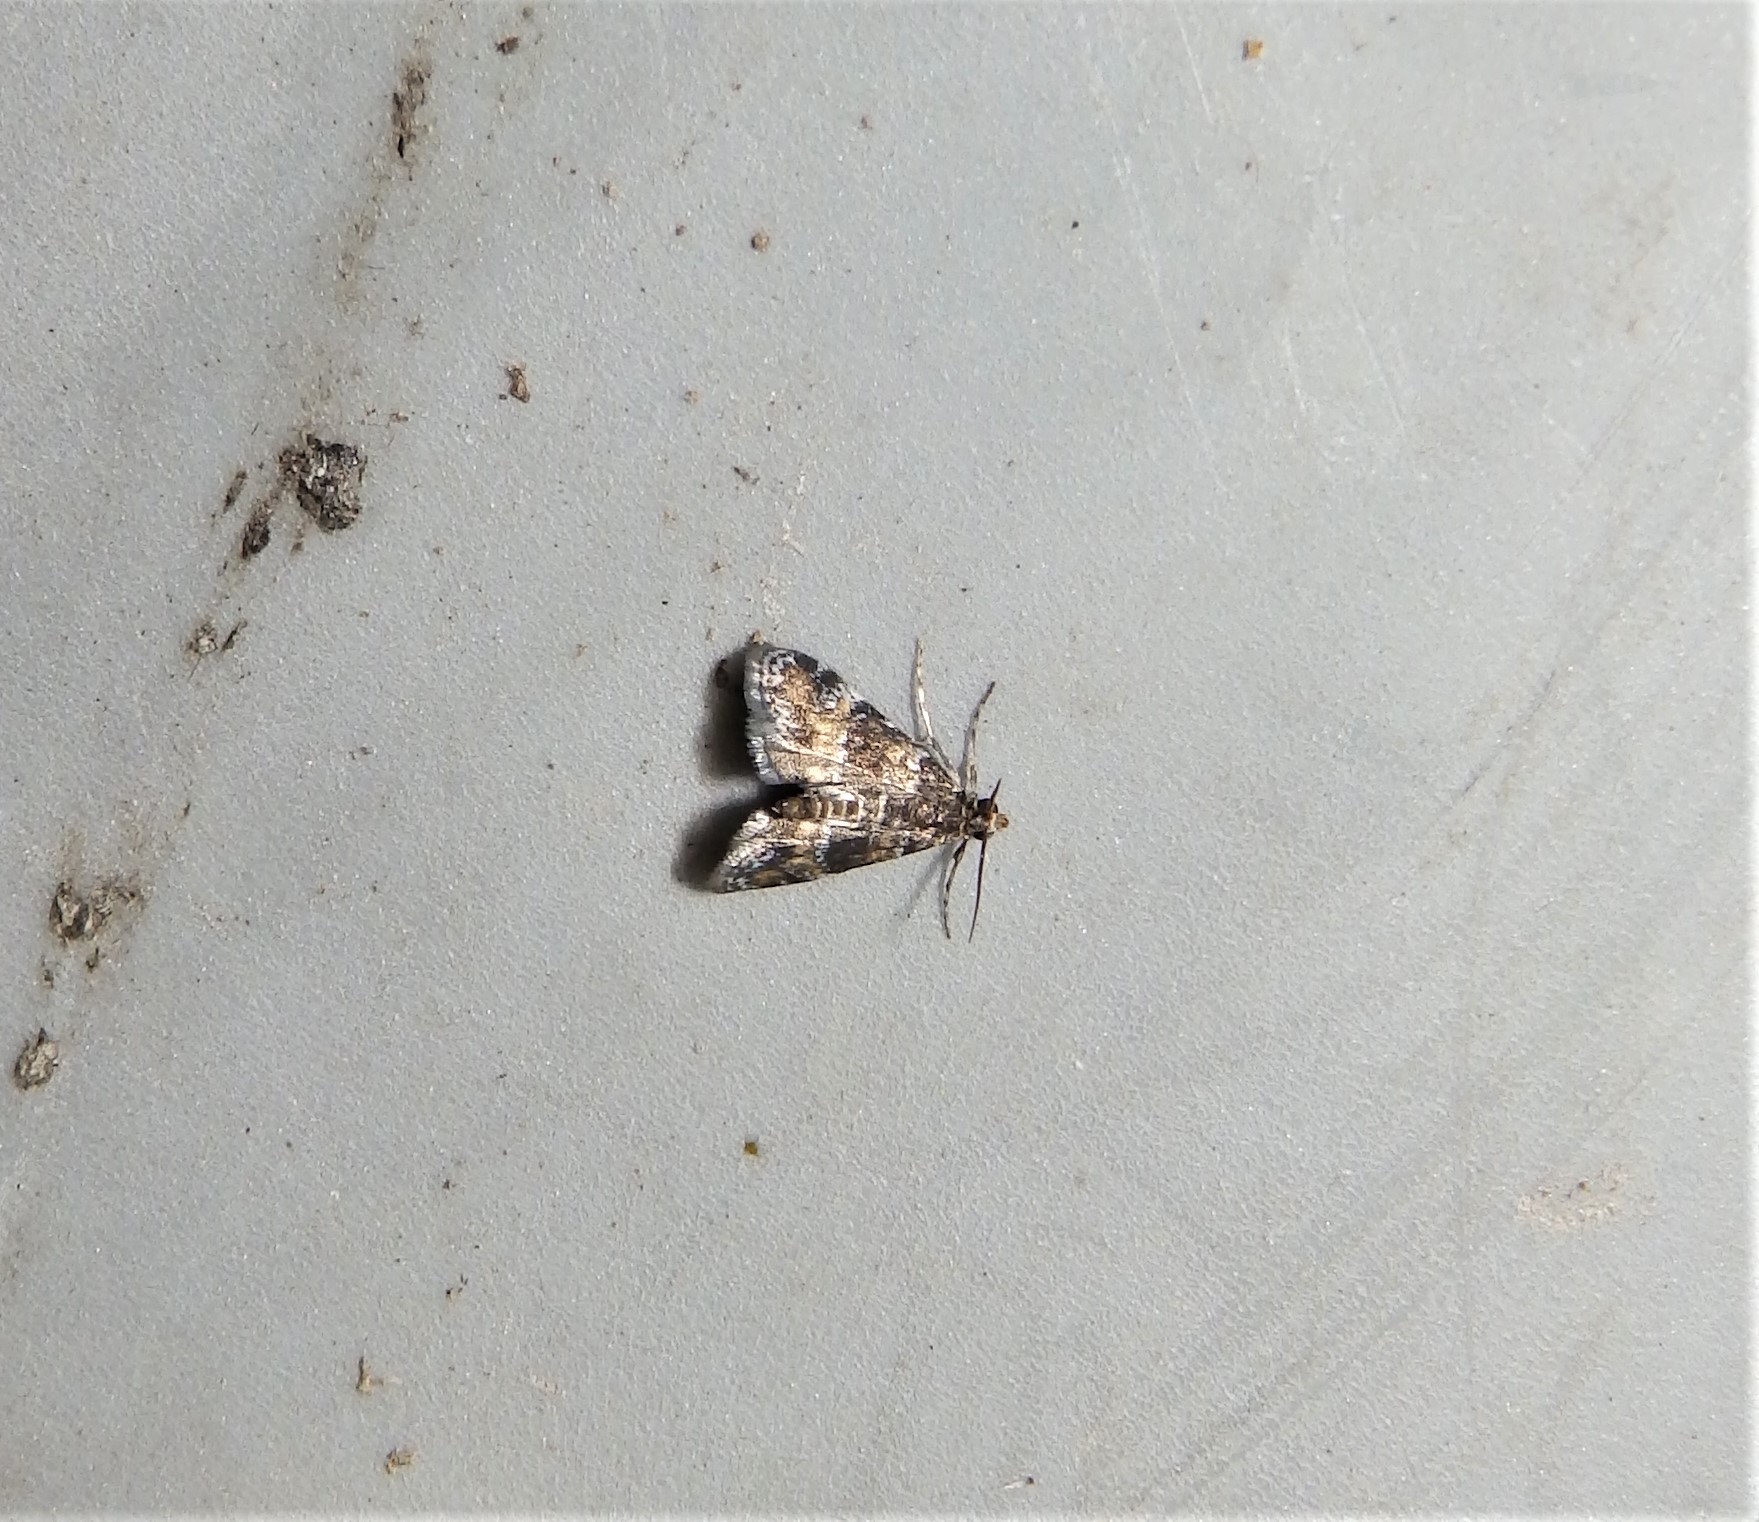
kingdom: Animalia
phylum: Arthropoda
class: Insecta
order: Lepidoptera
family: Crambidae
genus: Elophila
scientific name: Elophila obliteralis
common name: Waterlily leafcutter moth
